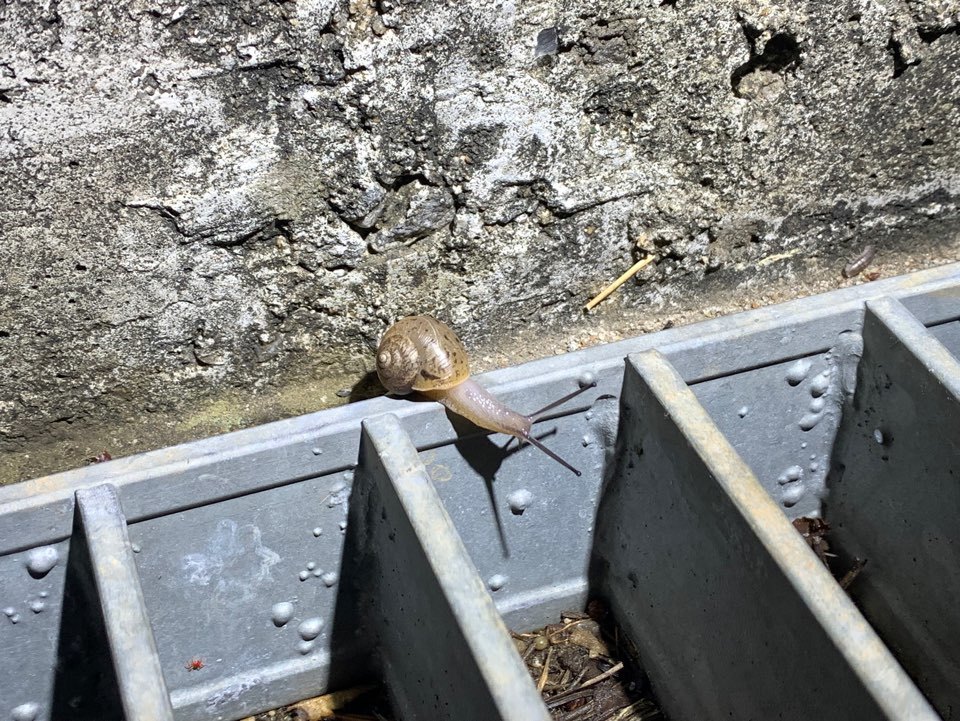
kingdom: Animalia
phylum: Mollusca
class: Gastropoda
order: Stylommatophora
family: Camaenidae
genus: Acusta
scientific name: Acusta redfieldi
